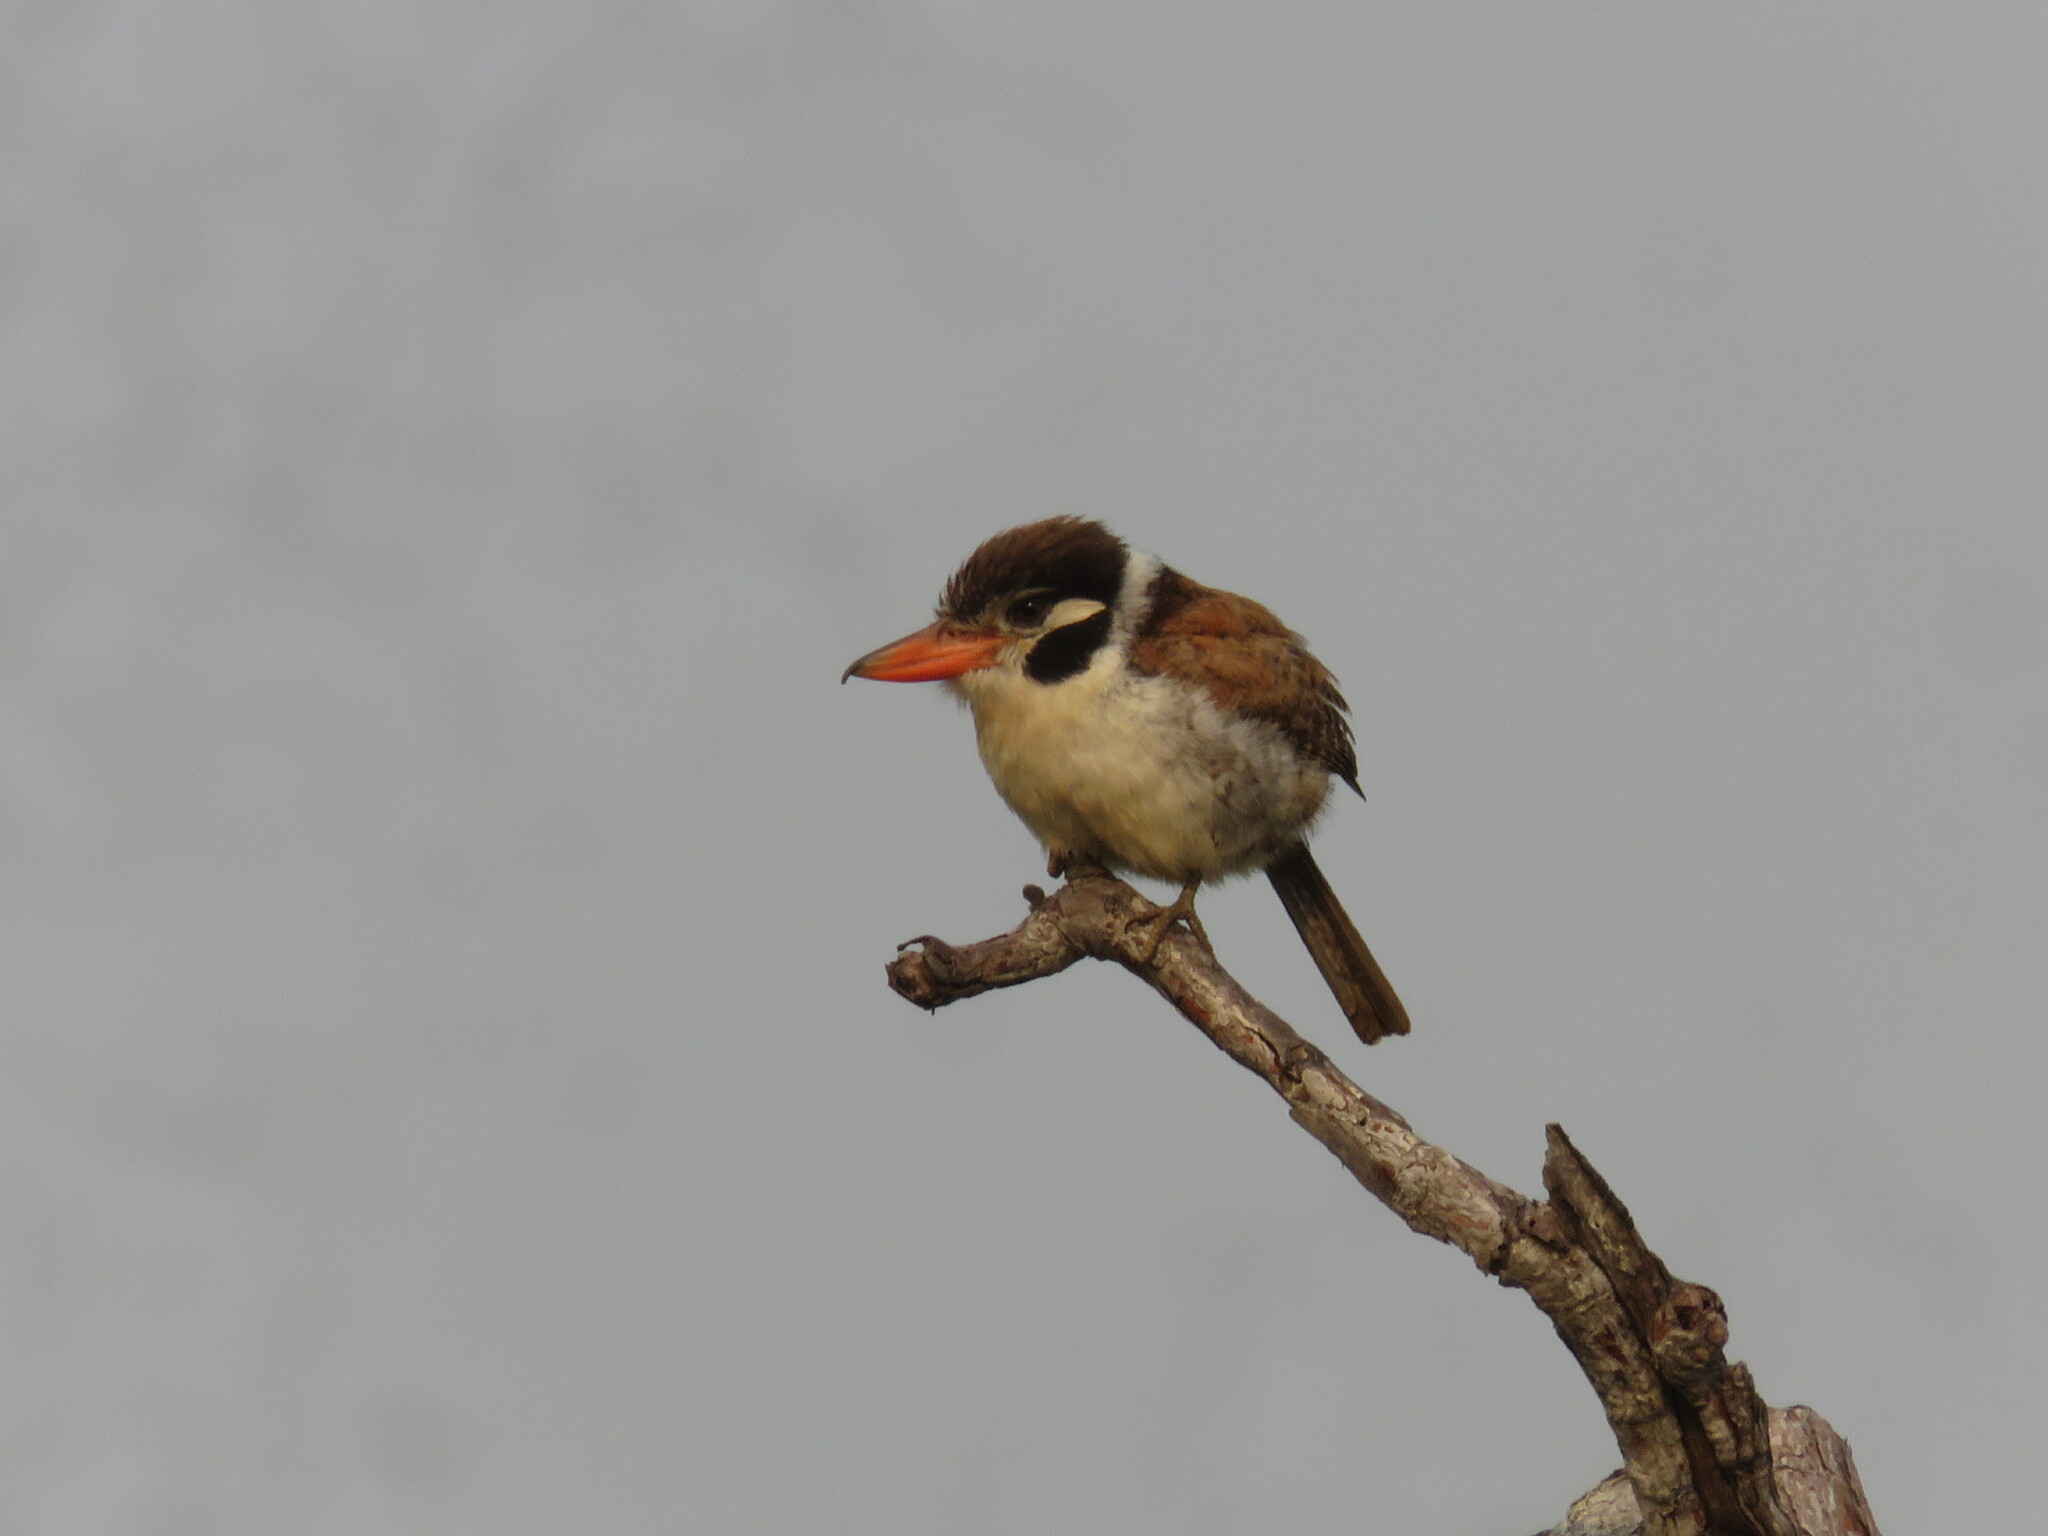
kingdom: Animalia
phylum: Chordata
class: Aves
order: Piciformes
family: Bucconidae
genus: Nystalus
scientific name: Nystalus chacuru
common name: White-eared puffbird
